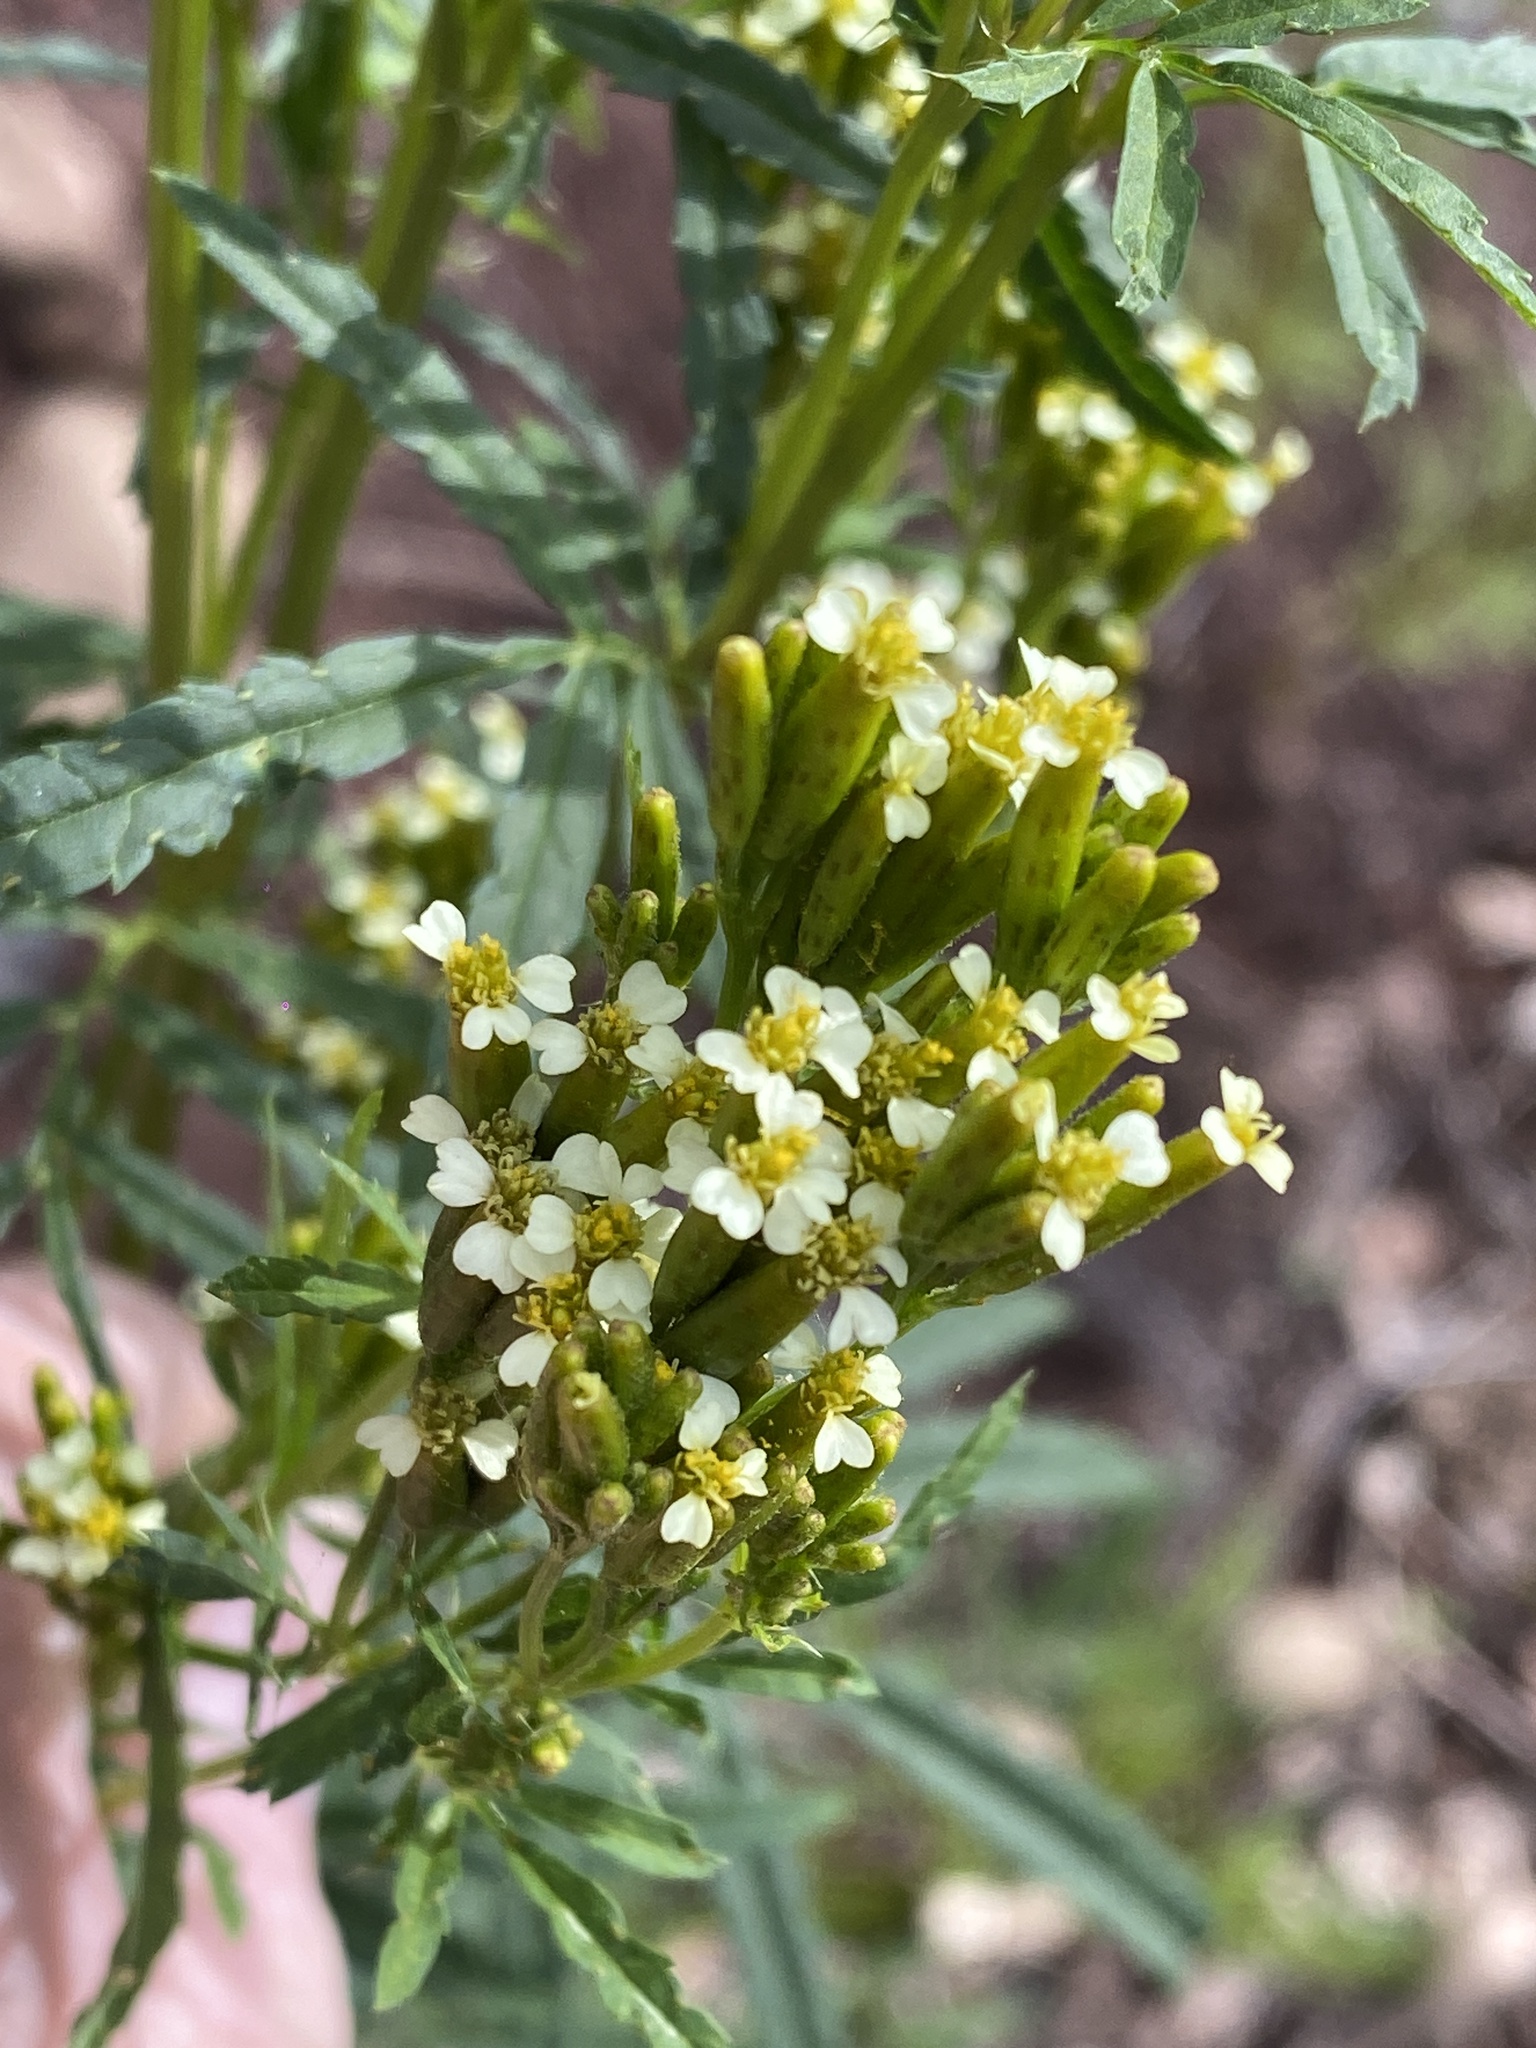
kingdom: Plantae
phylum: Tracheophyta
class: Magnoliopsida
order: Asterales
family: Asteraceae
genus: Tagetes
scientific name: Tagetes minuta
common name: Muster john henry
